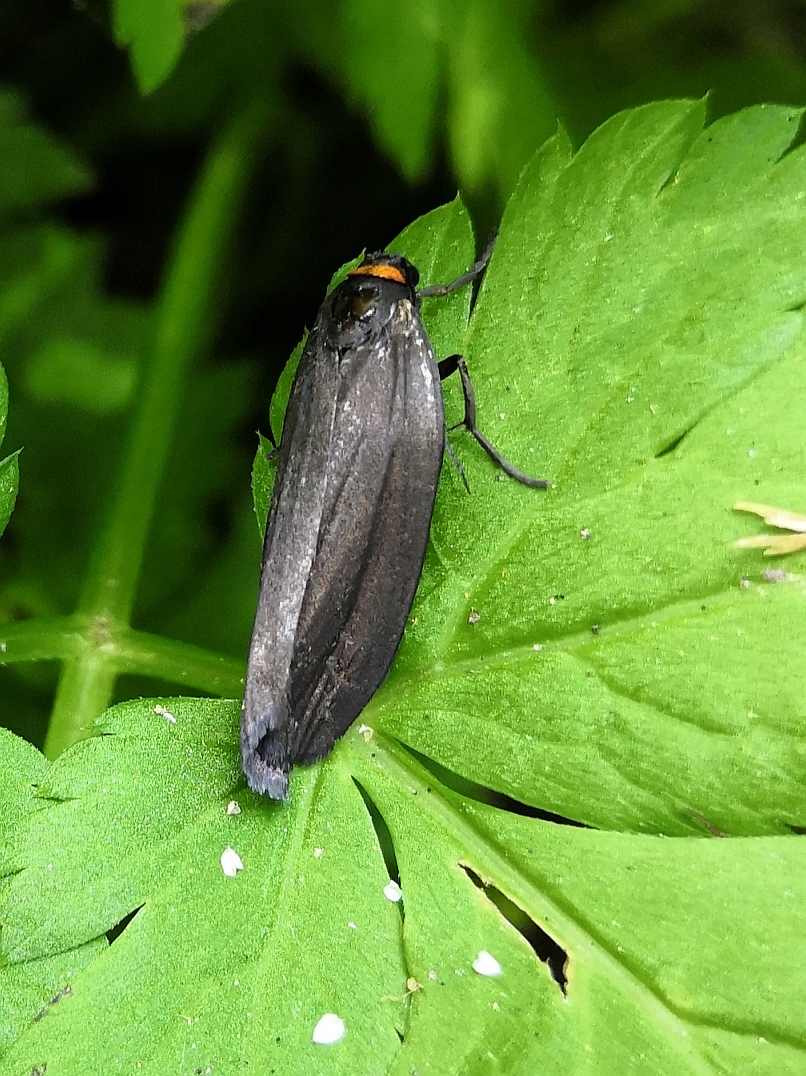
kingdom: Animalia
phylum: Arthropoda
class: Insecta
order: Lepidoptera
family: Erebidae
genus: Atolmis
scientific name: Atolmis rubricollis
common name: Red-necked footman
